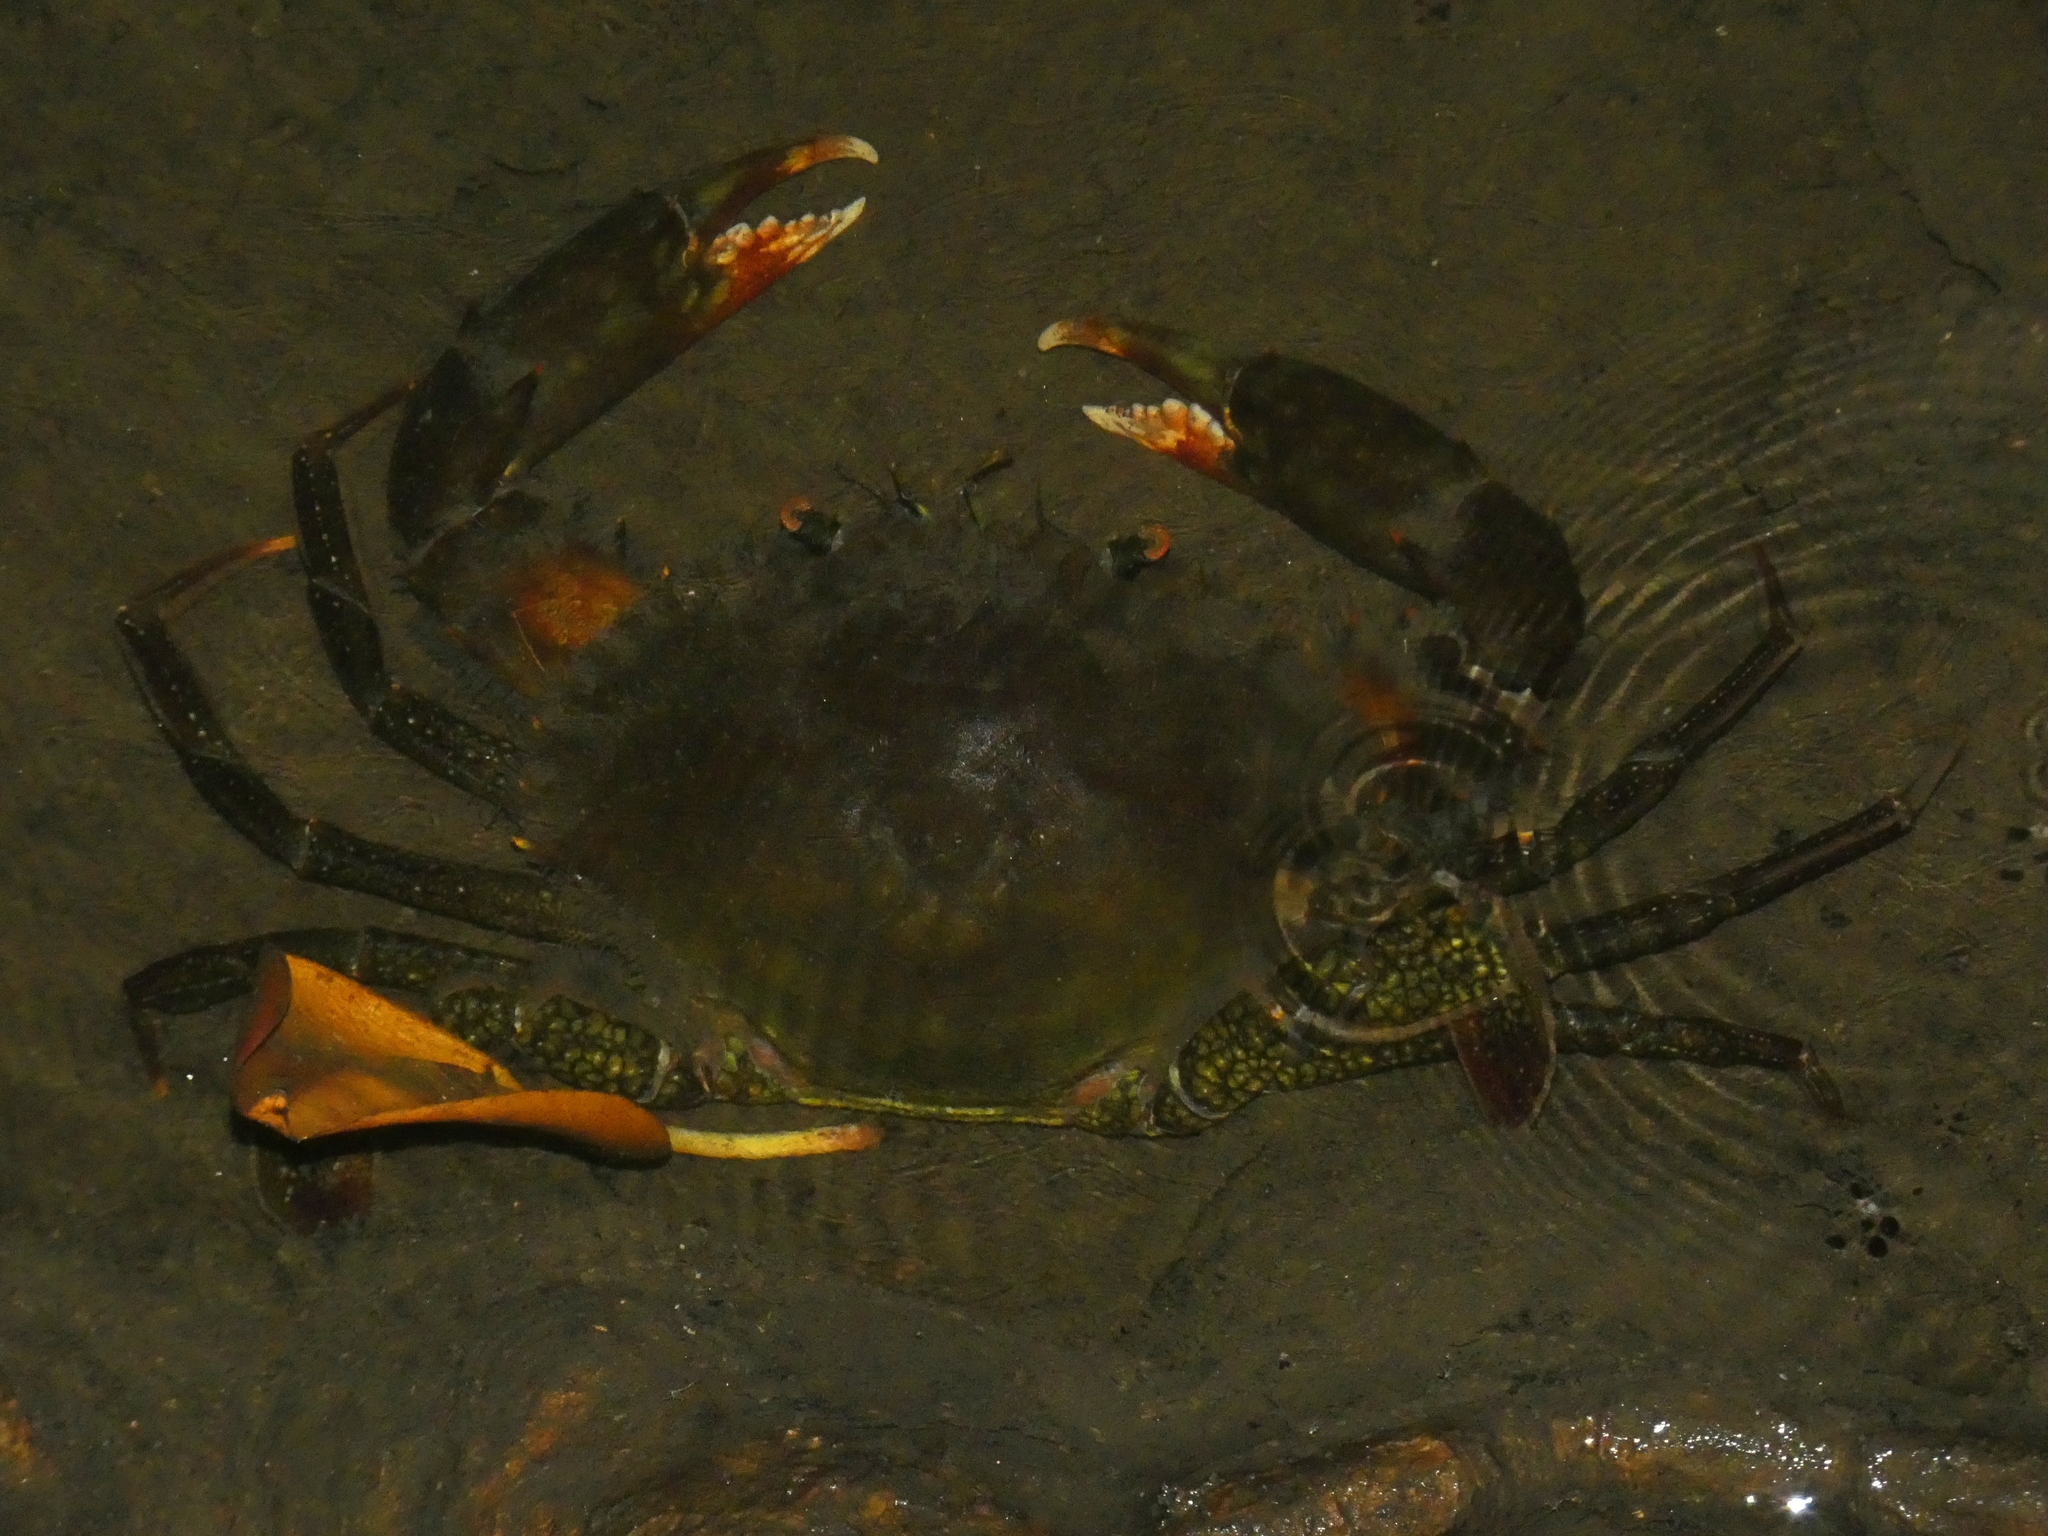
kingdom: Animalia
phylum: Arthropoda
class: Malacostraca
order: Decapoda
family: Portunidae
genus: Scylla
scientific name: Scylla serrata
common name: Giant mud crab
